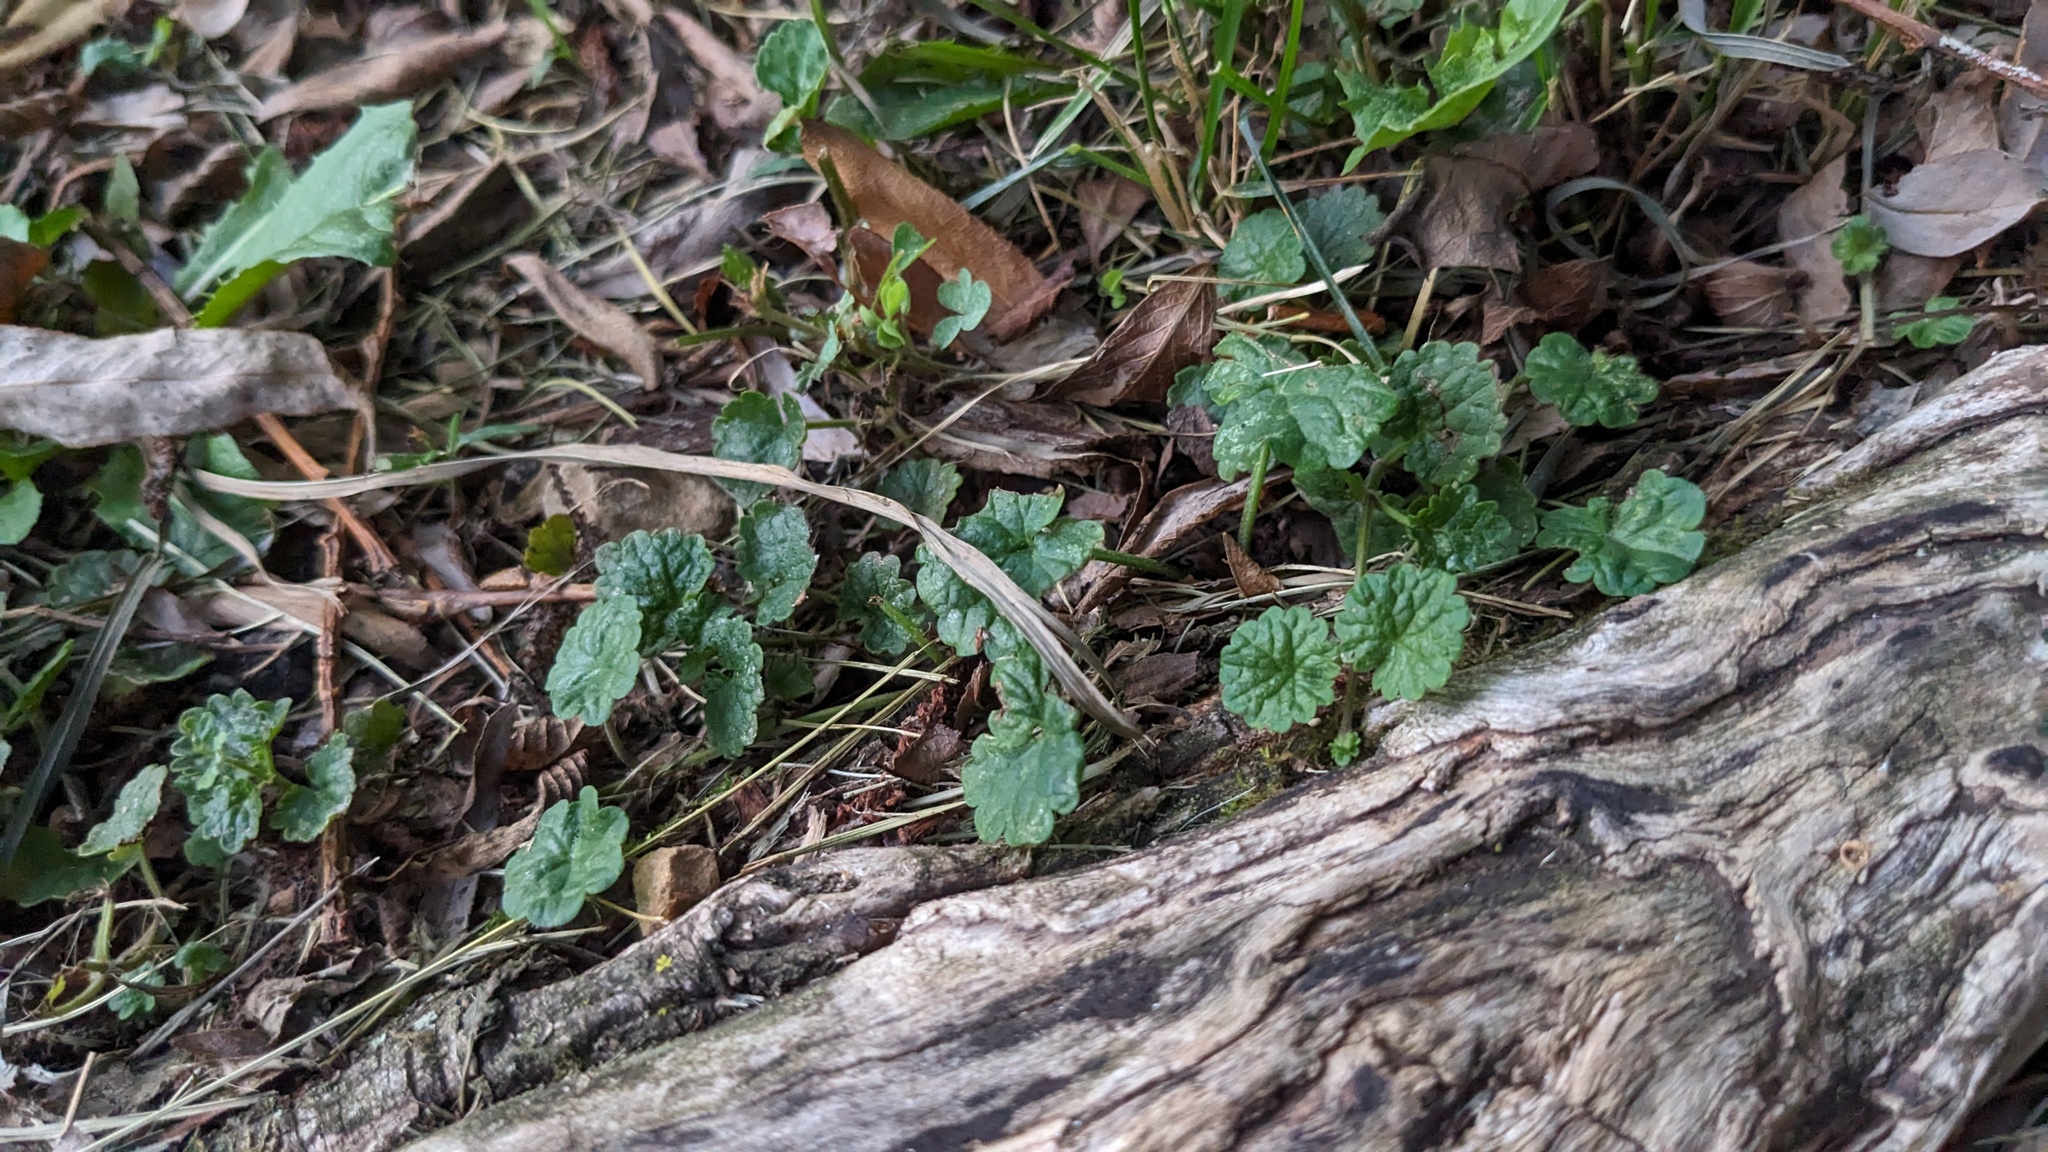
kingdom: Plantae
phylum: Tracheophyta
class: Magnoliopsida
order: Lamiales
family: Lamiaceae
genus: Glechoma
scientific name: Glechoma hederacea
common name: Ground ivy
